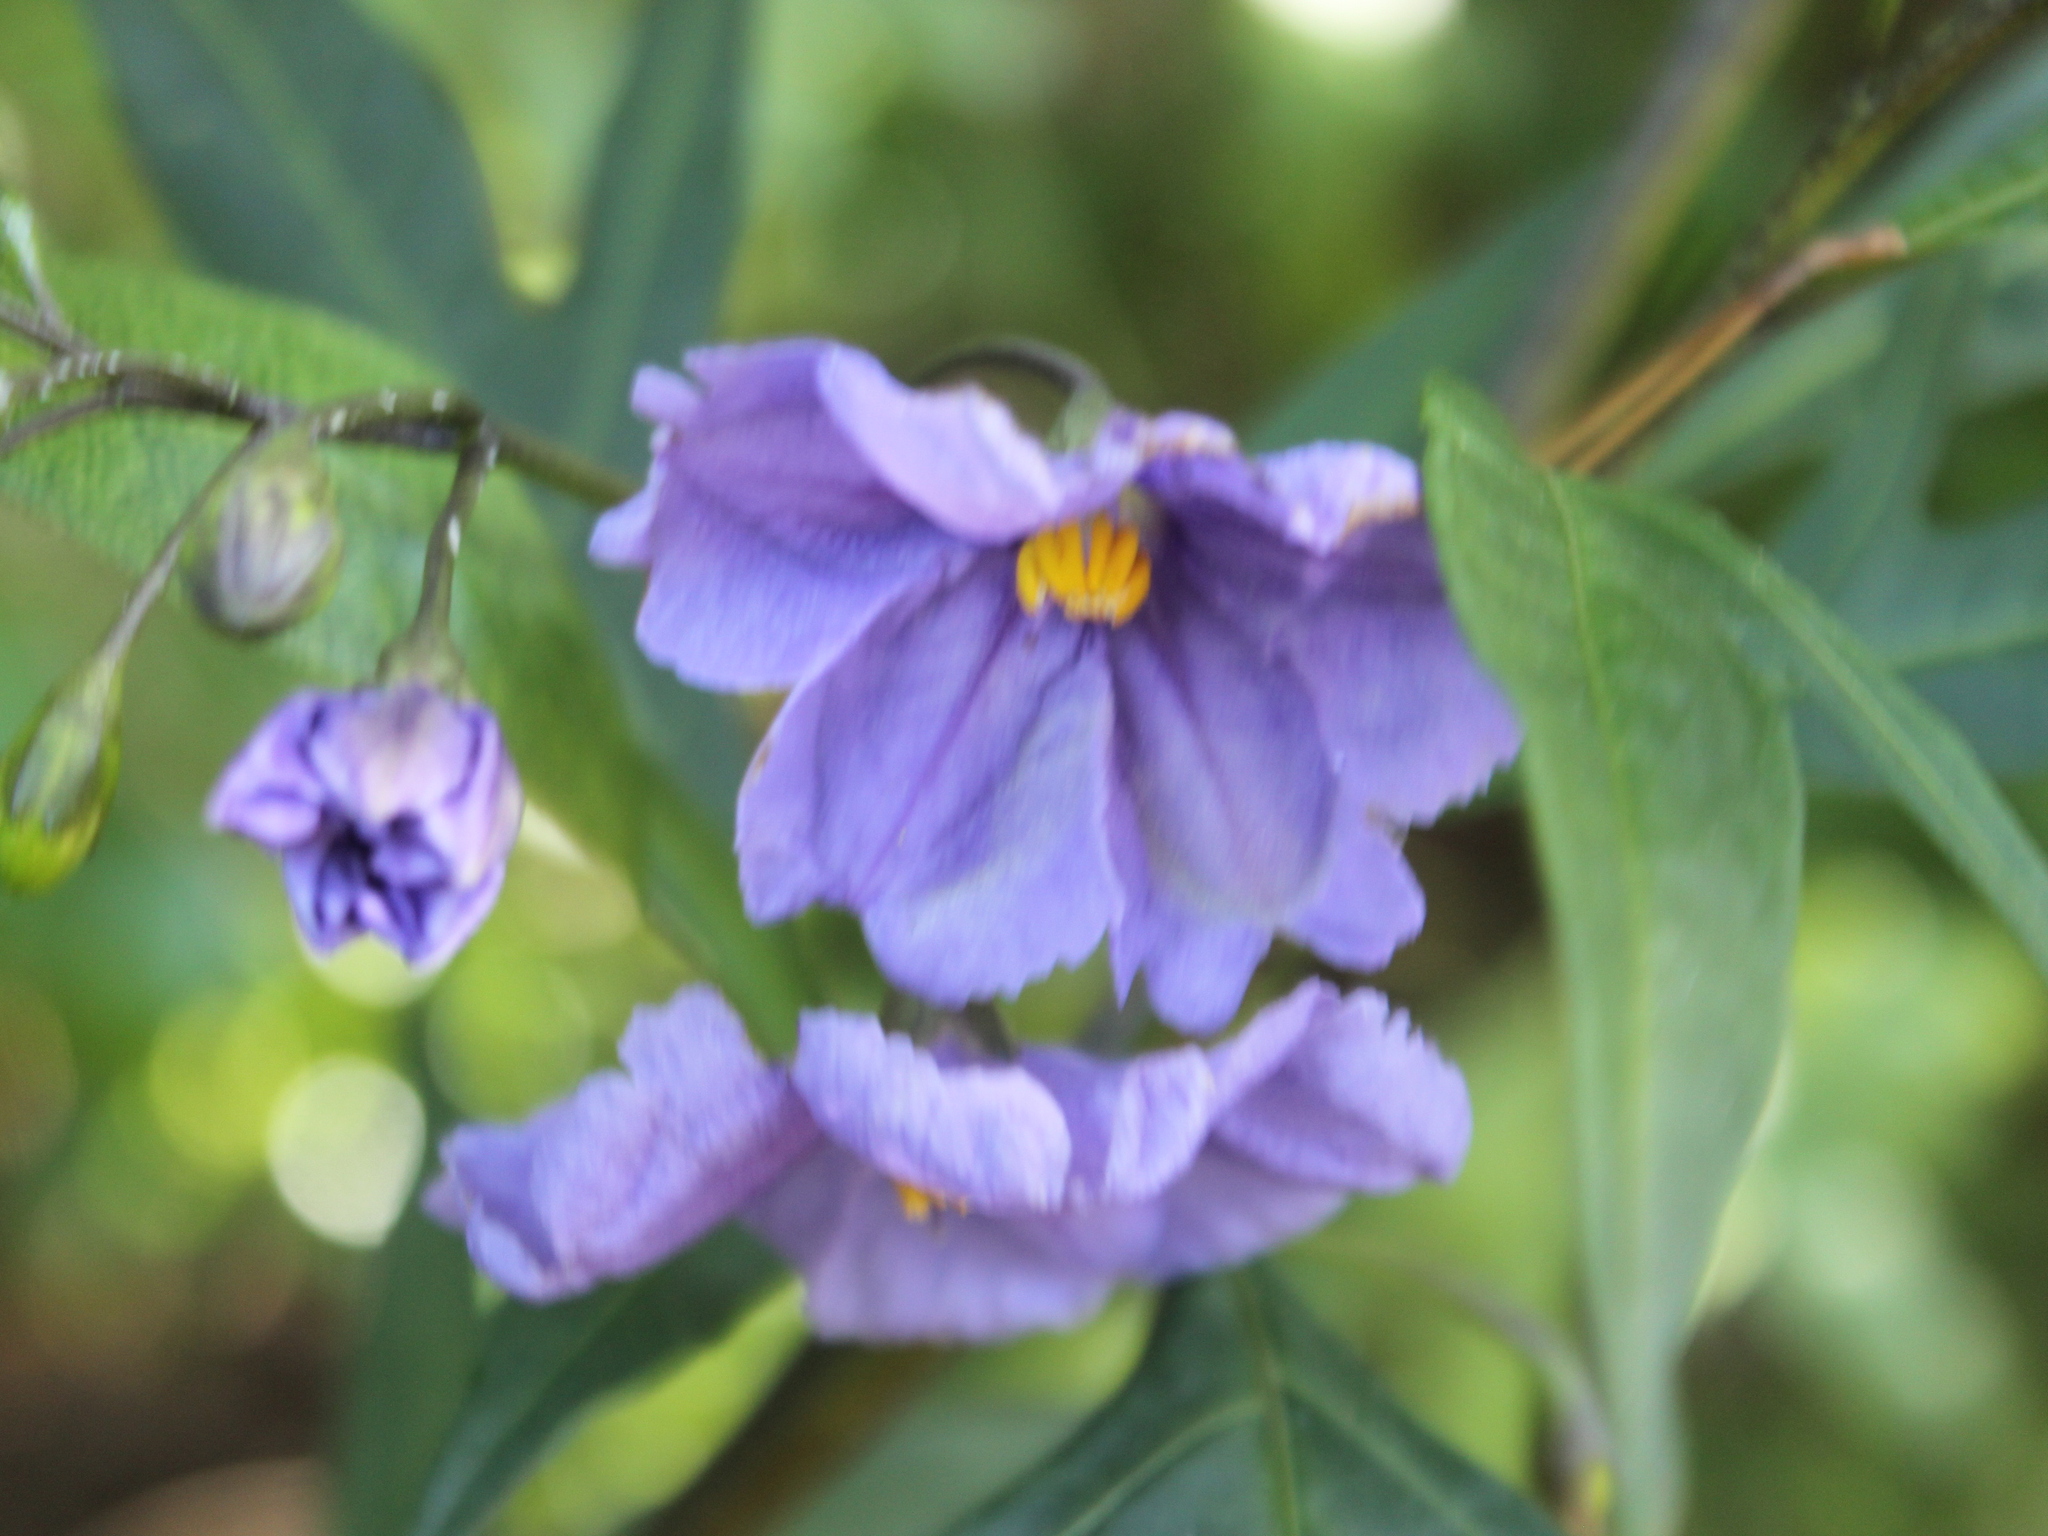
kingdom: Plantae
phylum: Tracheophyta
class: Magnoliopsida
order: Solanales
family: Solanaceae
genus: Solanum
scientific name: Solanum laciniatum
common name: Kangaroo-apple
